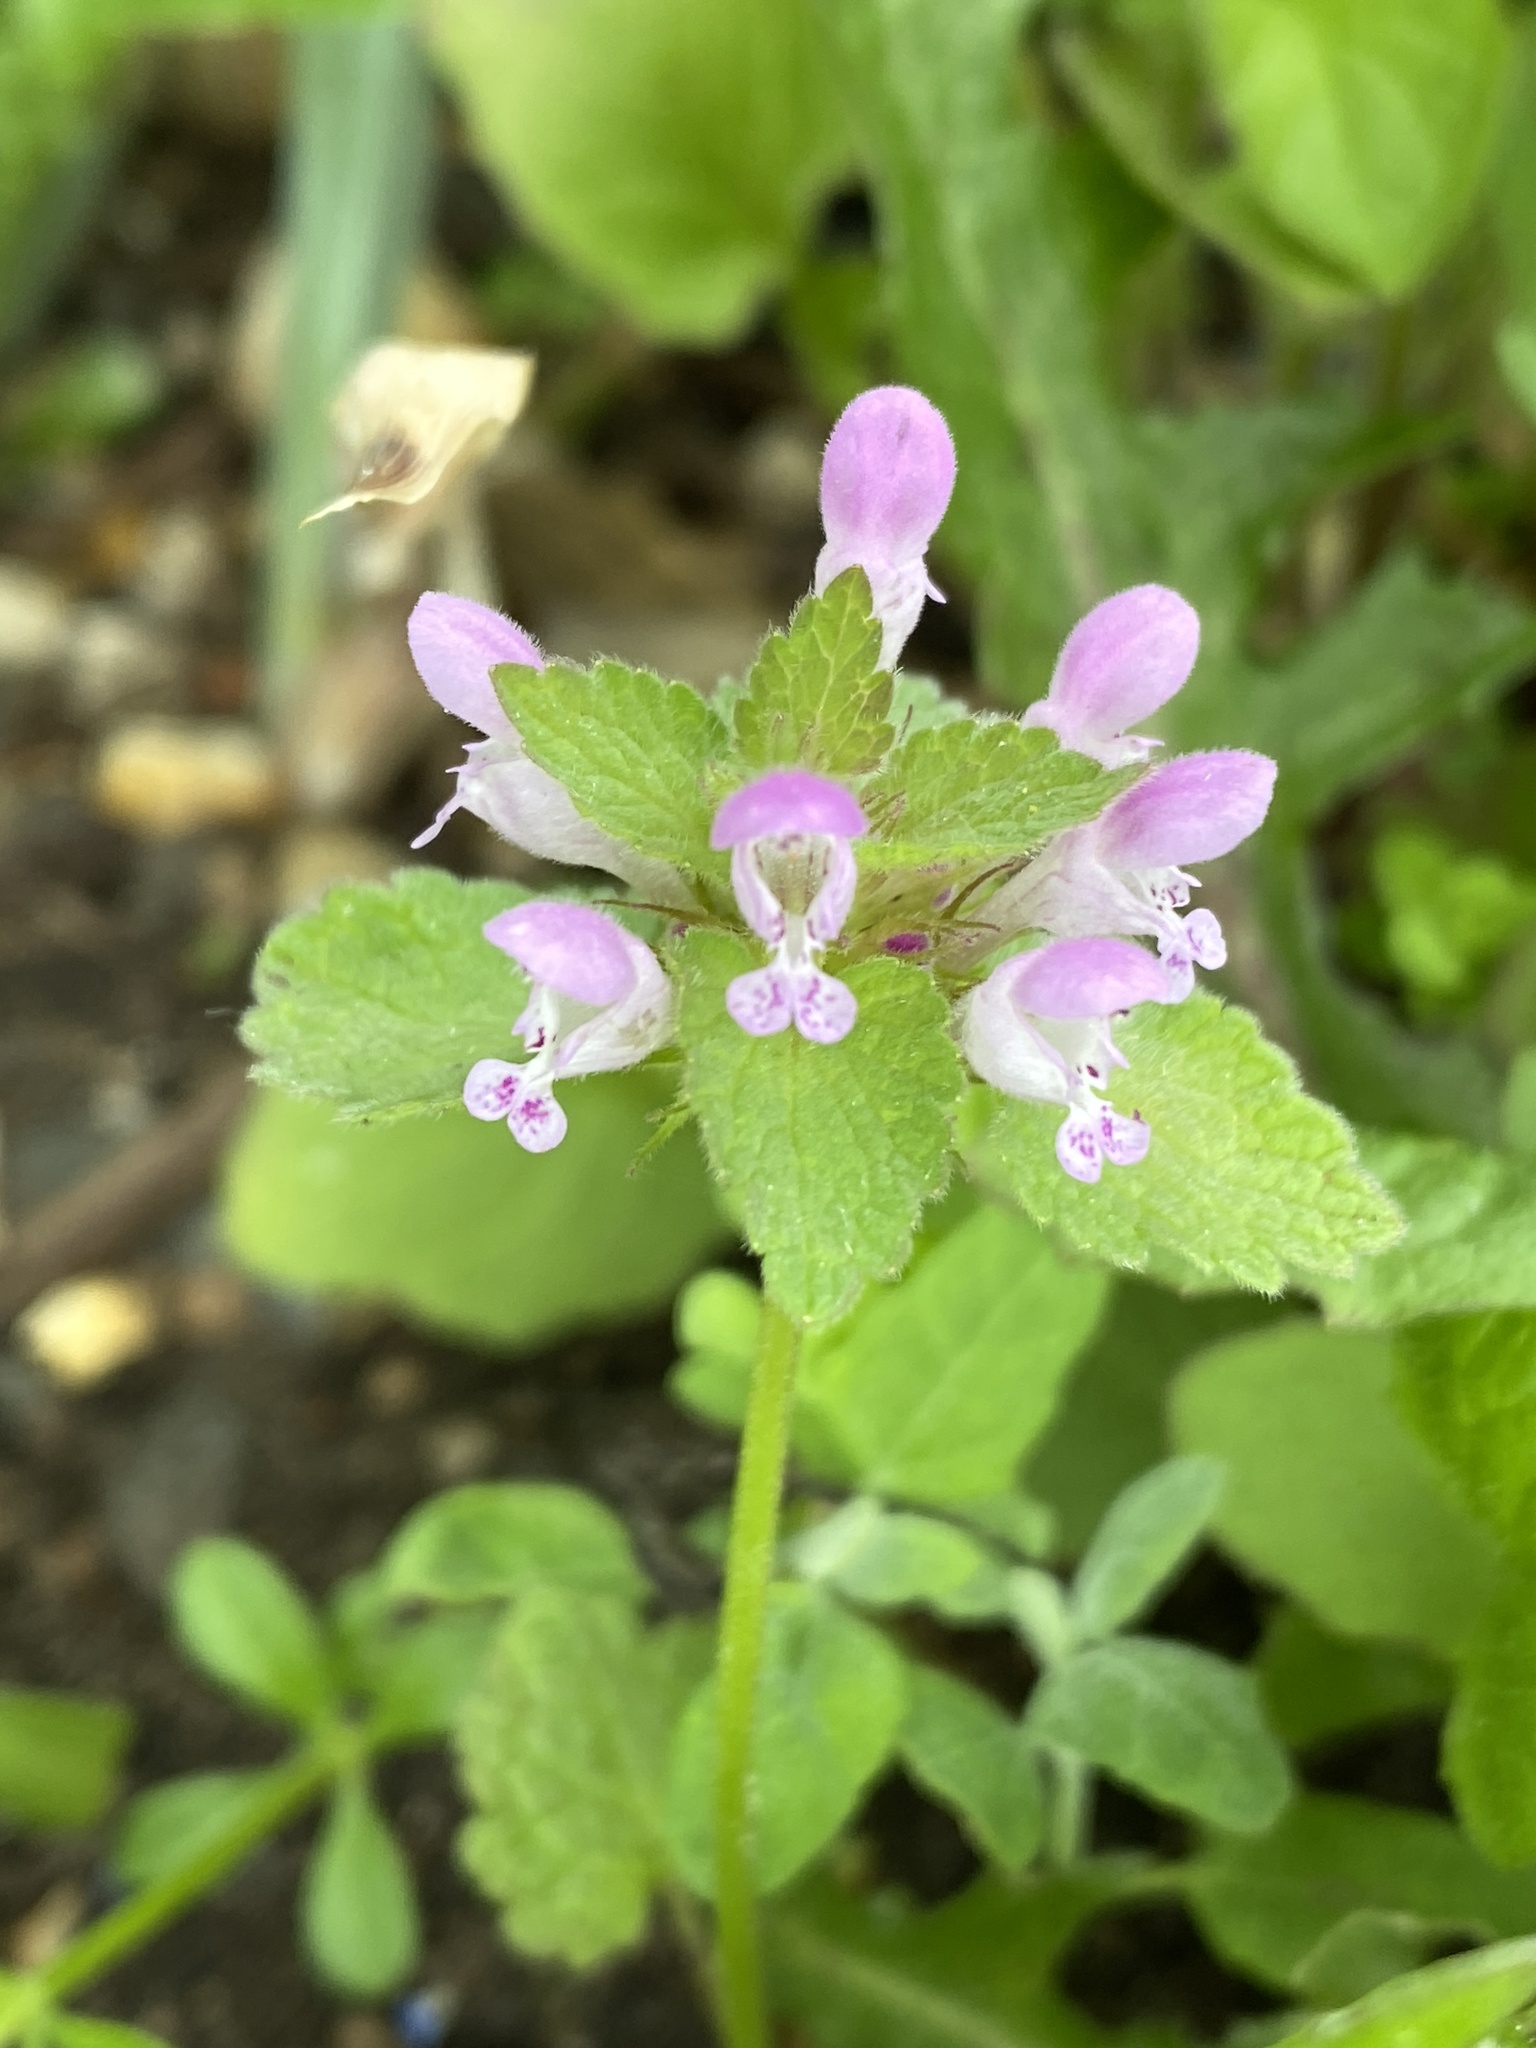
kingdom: Plantae
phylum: Tracheophyta
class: Magnoliopsida
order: Lamiales
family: Lamiaceae
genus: Lamium
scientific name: Lamium purpureum
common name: Red dead-nettle
